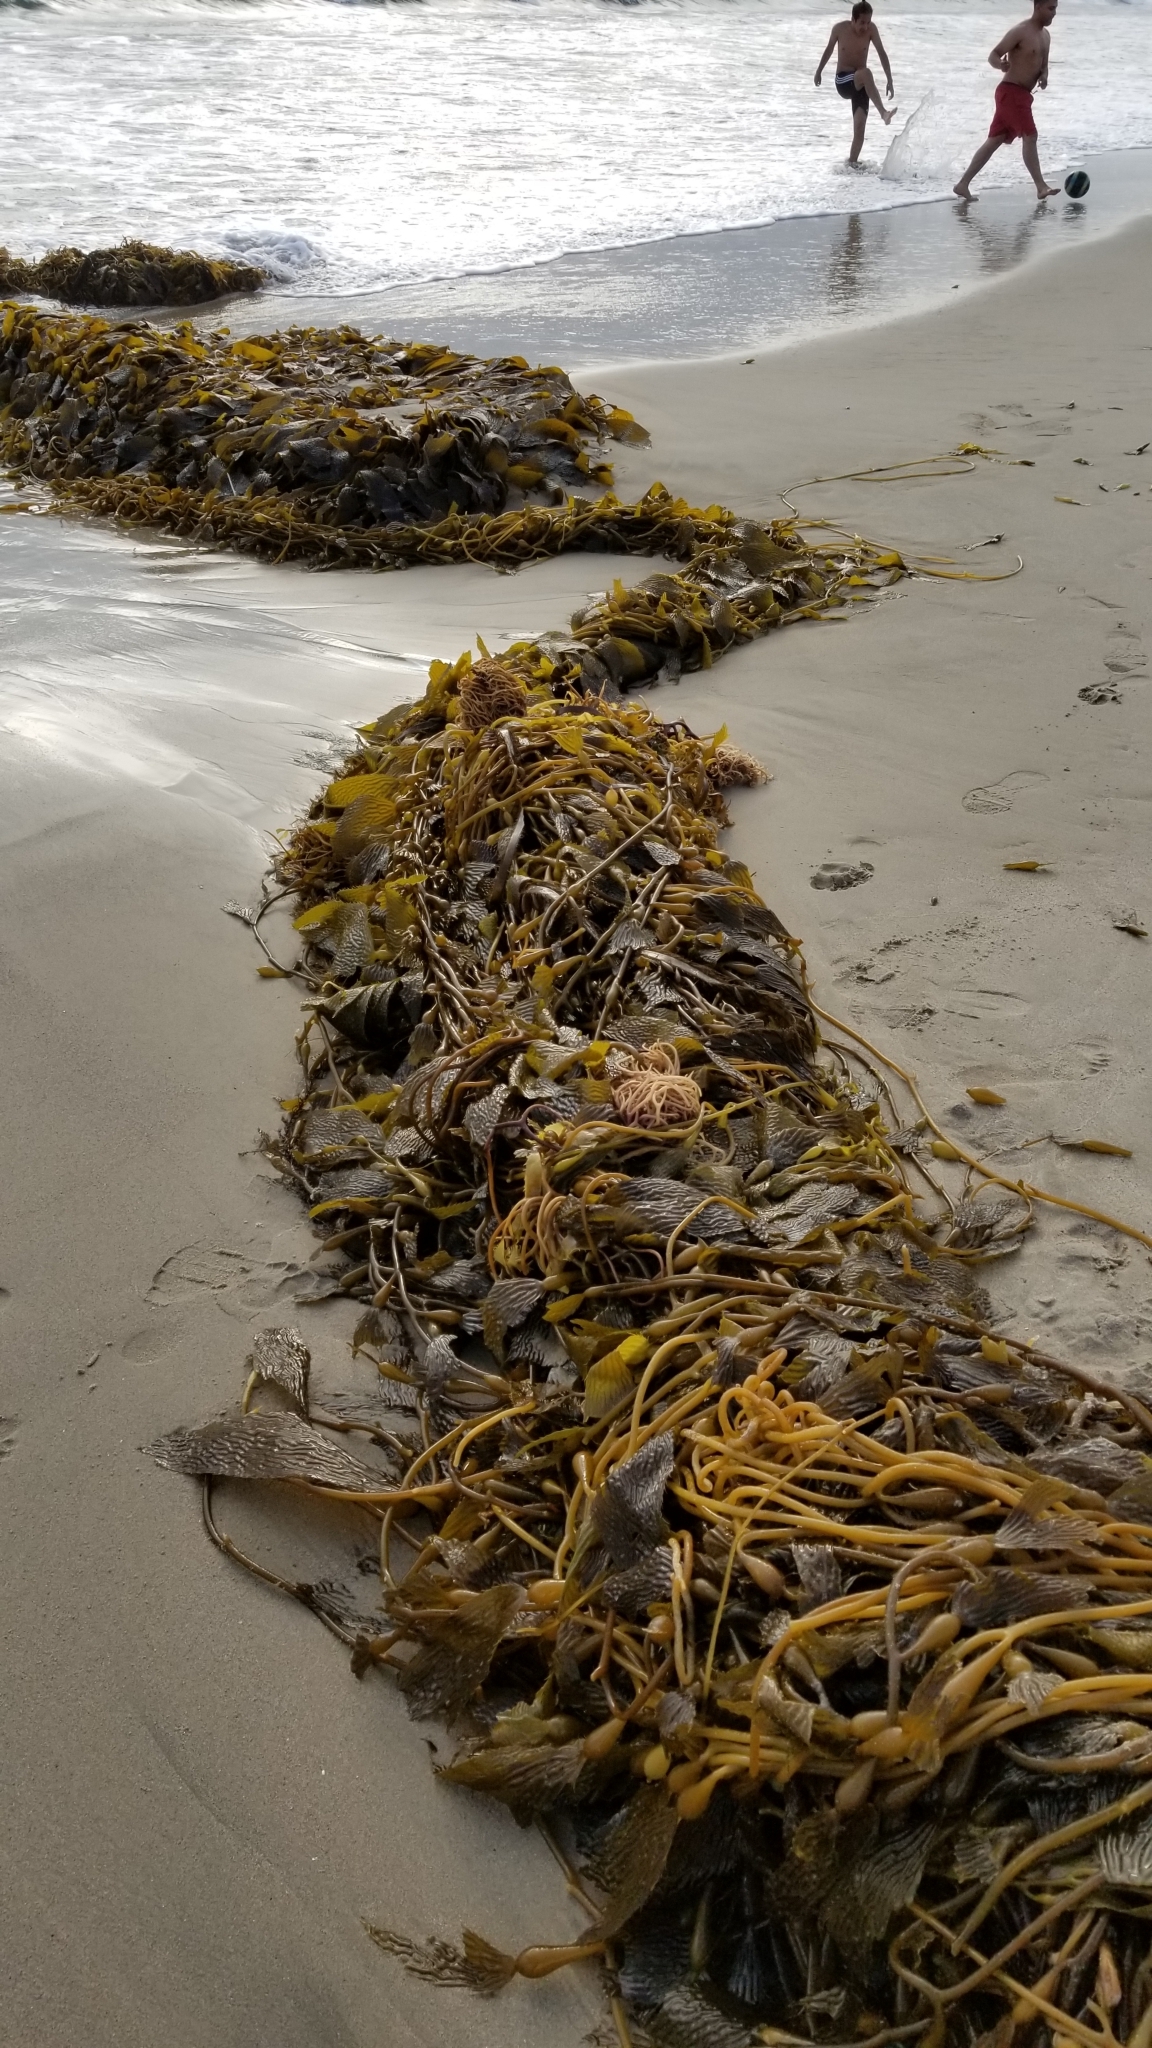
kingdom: Chromista
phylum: Ochrophyta
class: Phaeophyceae
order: Laminariales
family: Laminariaceae
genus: Macrocystis
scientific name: Macrocystis pyrifera
